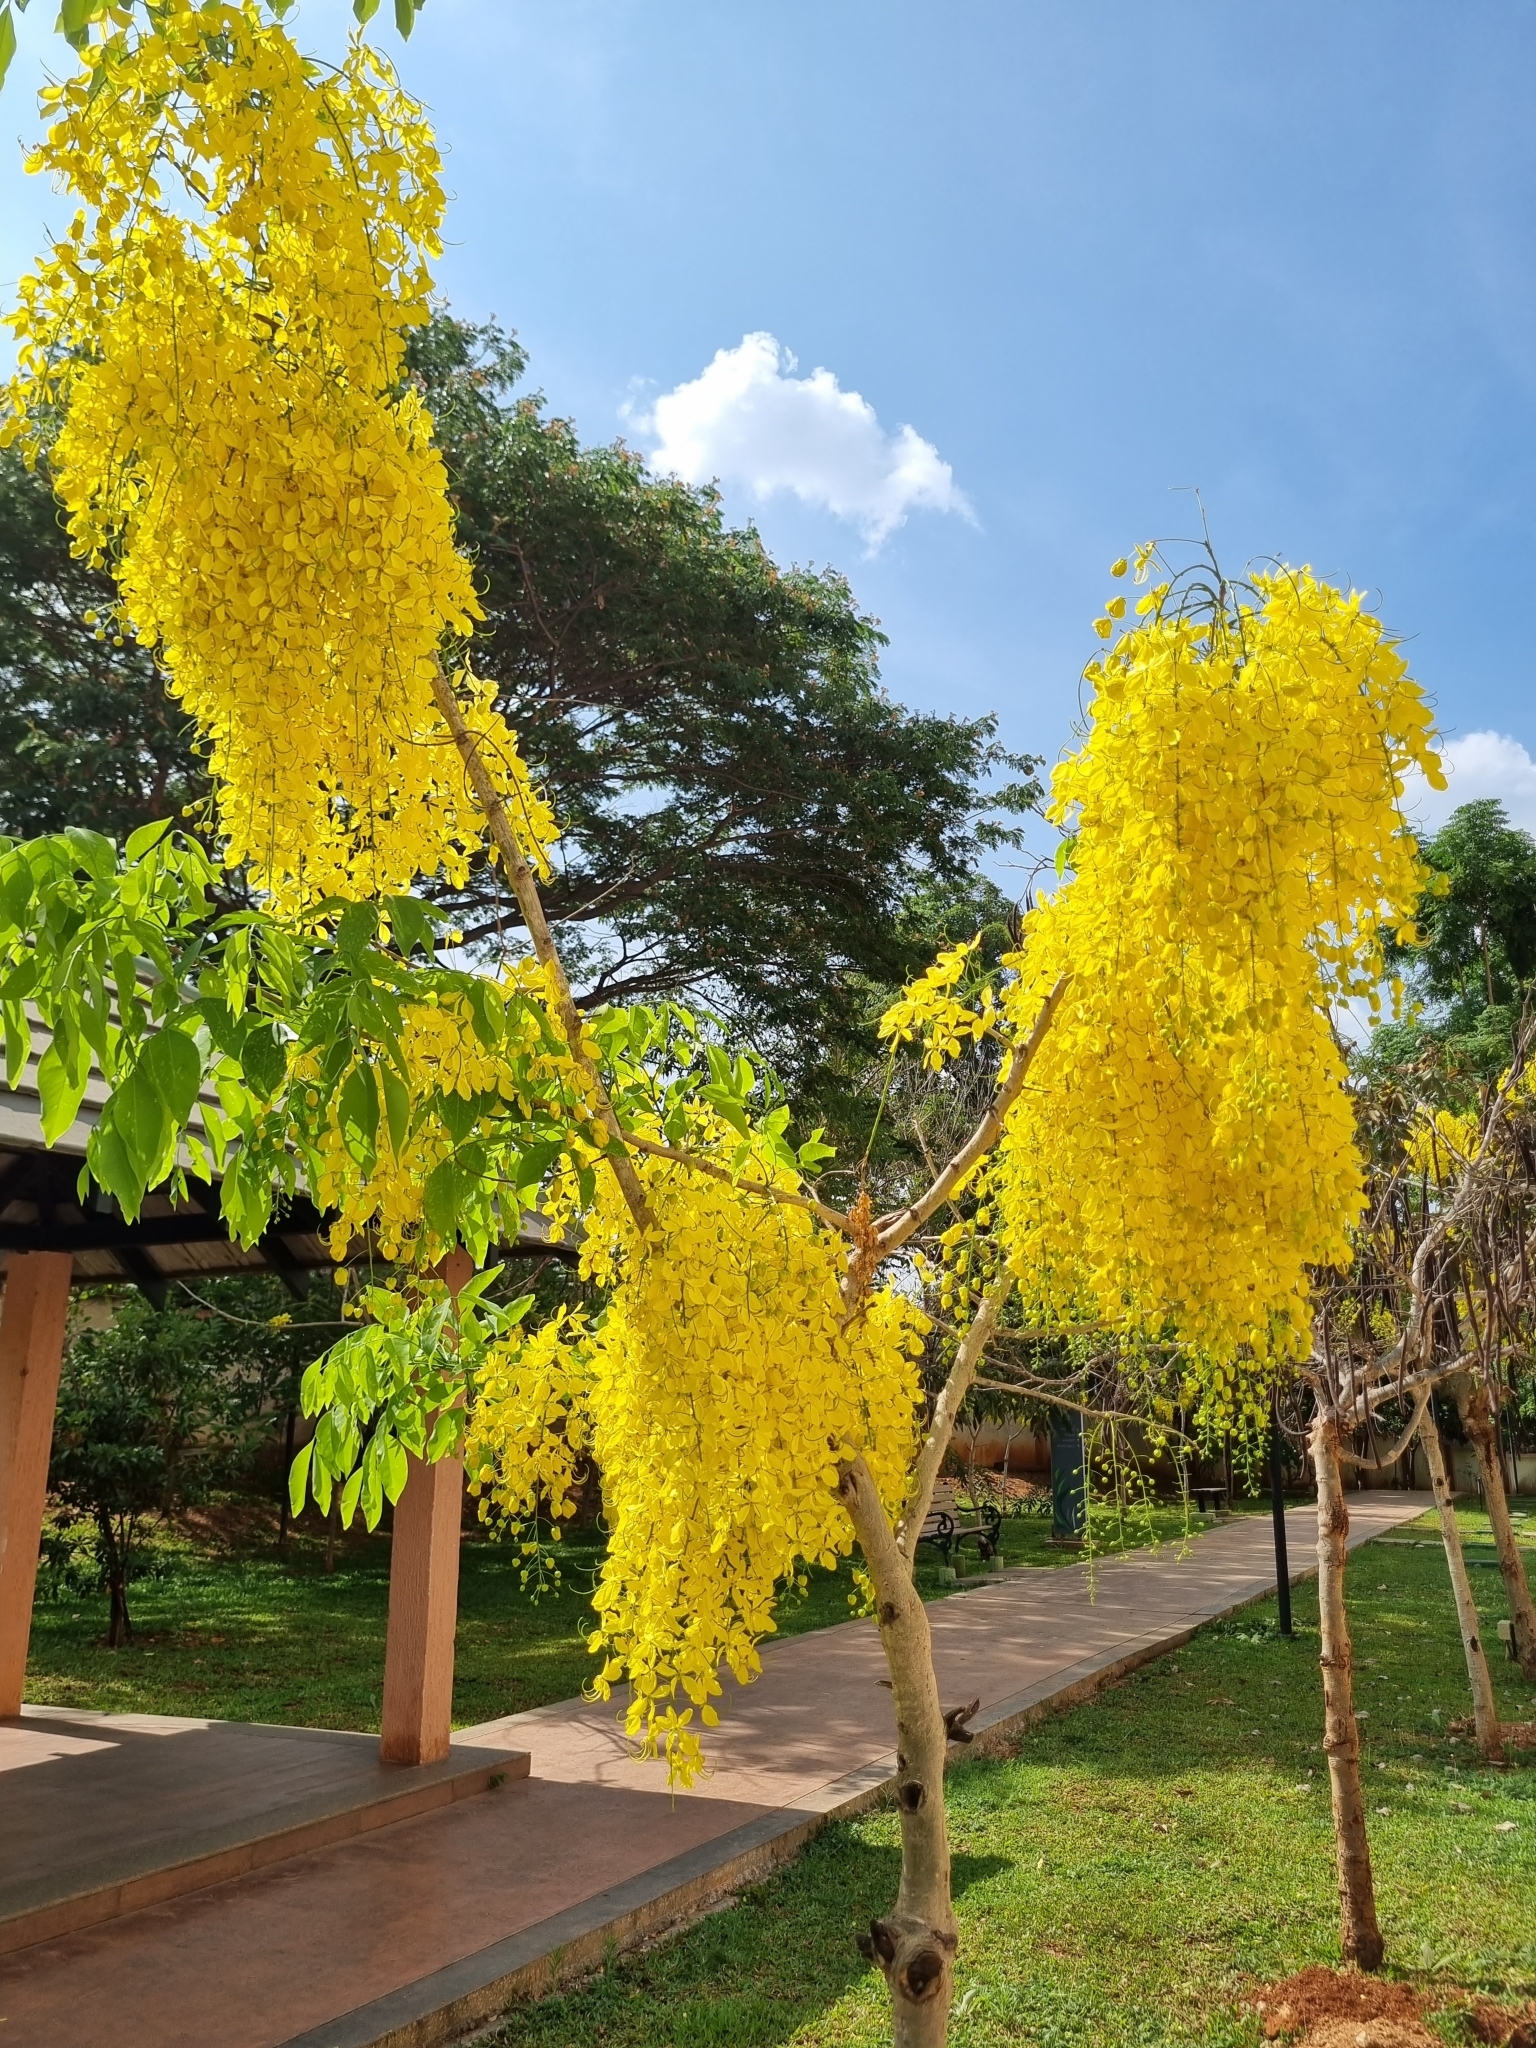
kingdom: Plantae
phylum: Tracheophyta
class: Magnoliopsida
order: Fabales
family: Fabaceae
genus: Cassia
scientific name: Cassia fistula
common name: Golden shower
